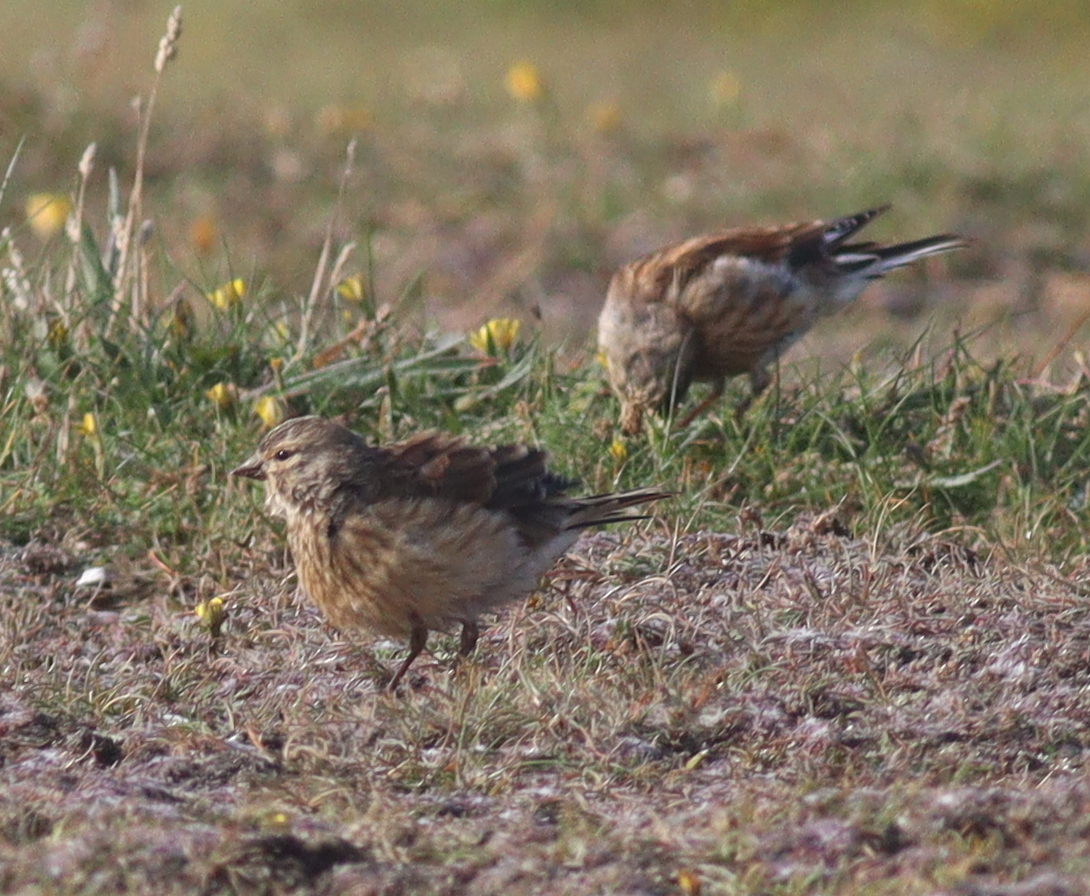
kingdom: Animalia
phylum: Chordata
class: Aves
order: Passeriformes
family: Fringillidae
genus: Linaria
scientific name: Linaria cannabina
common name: Common linnet
